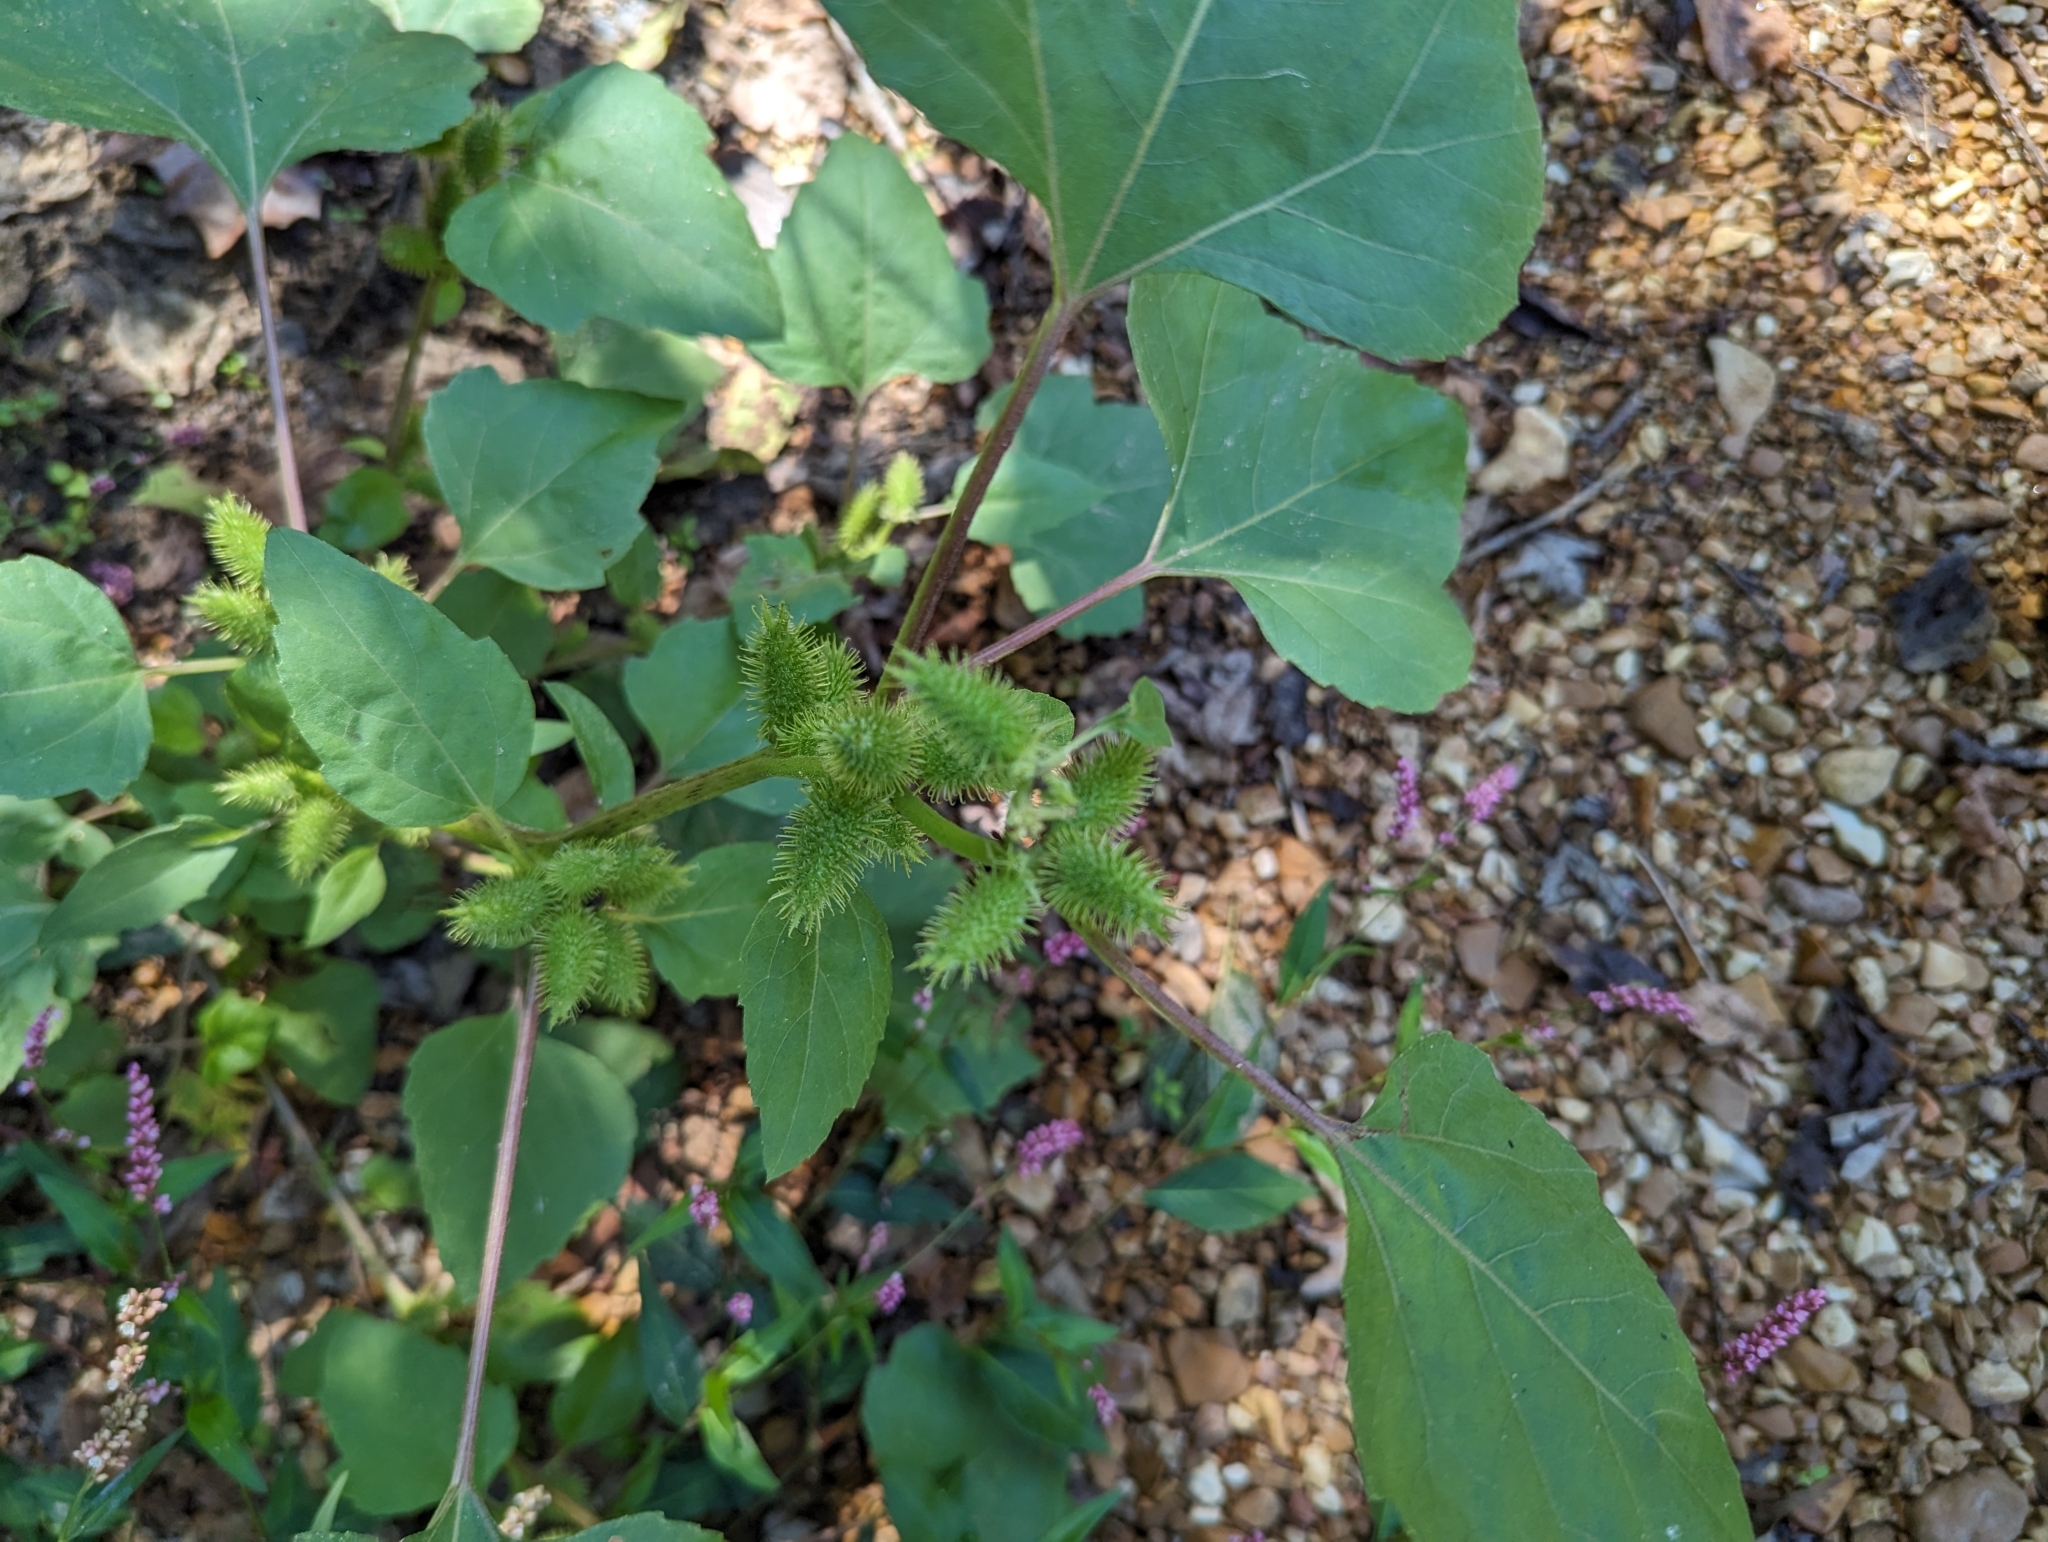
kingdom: Plantae
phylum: Tracheophyta
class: Magnoliopsida
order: Asterales
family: Asteraceae
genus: Xanthium
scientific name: Xanthium strumarium
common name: Rough cocklebur
